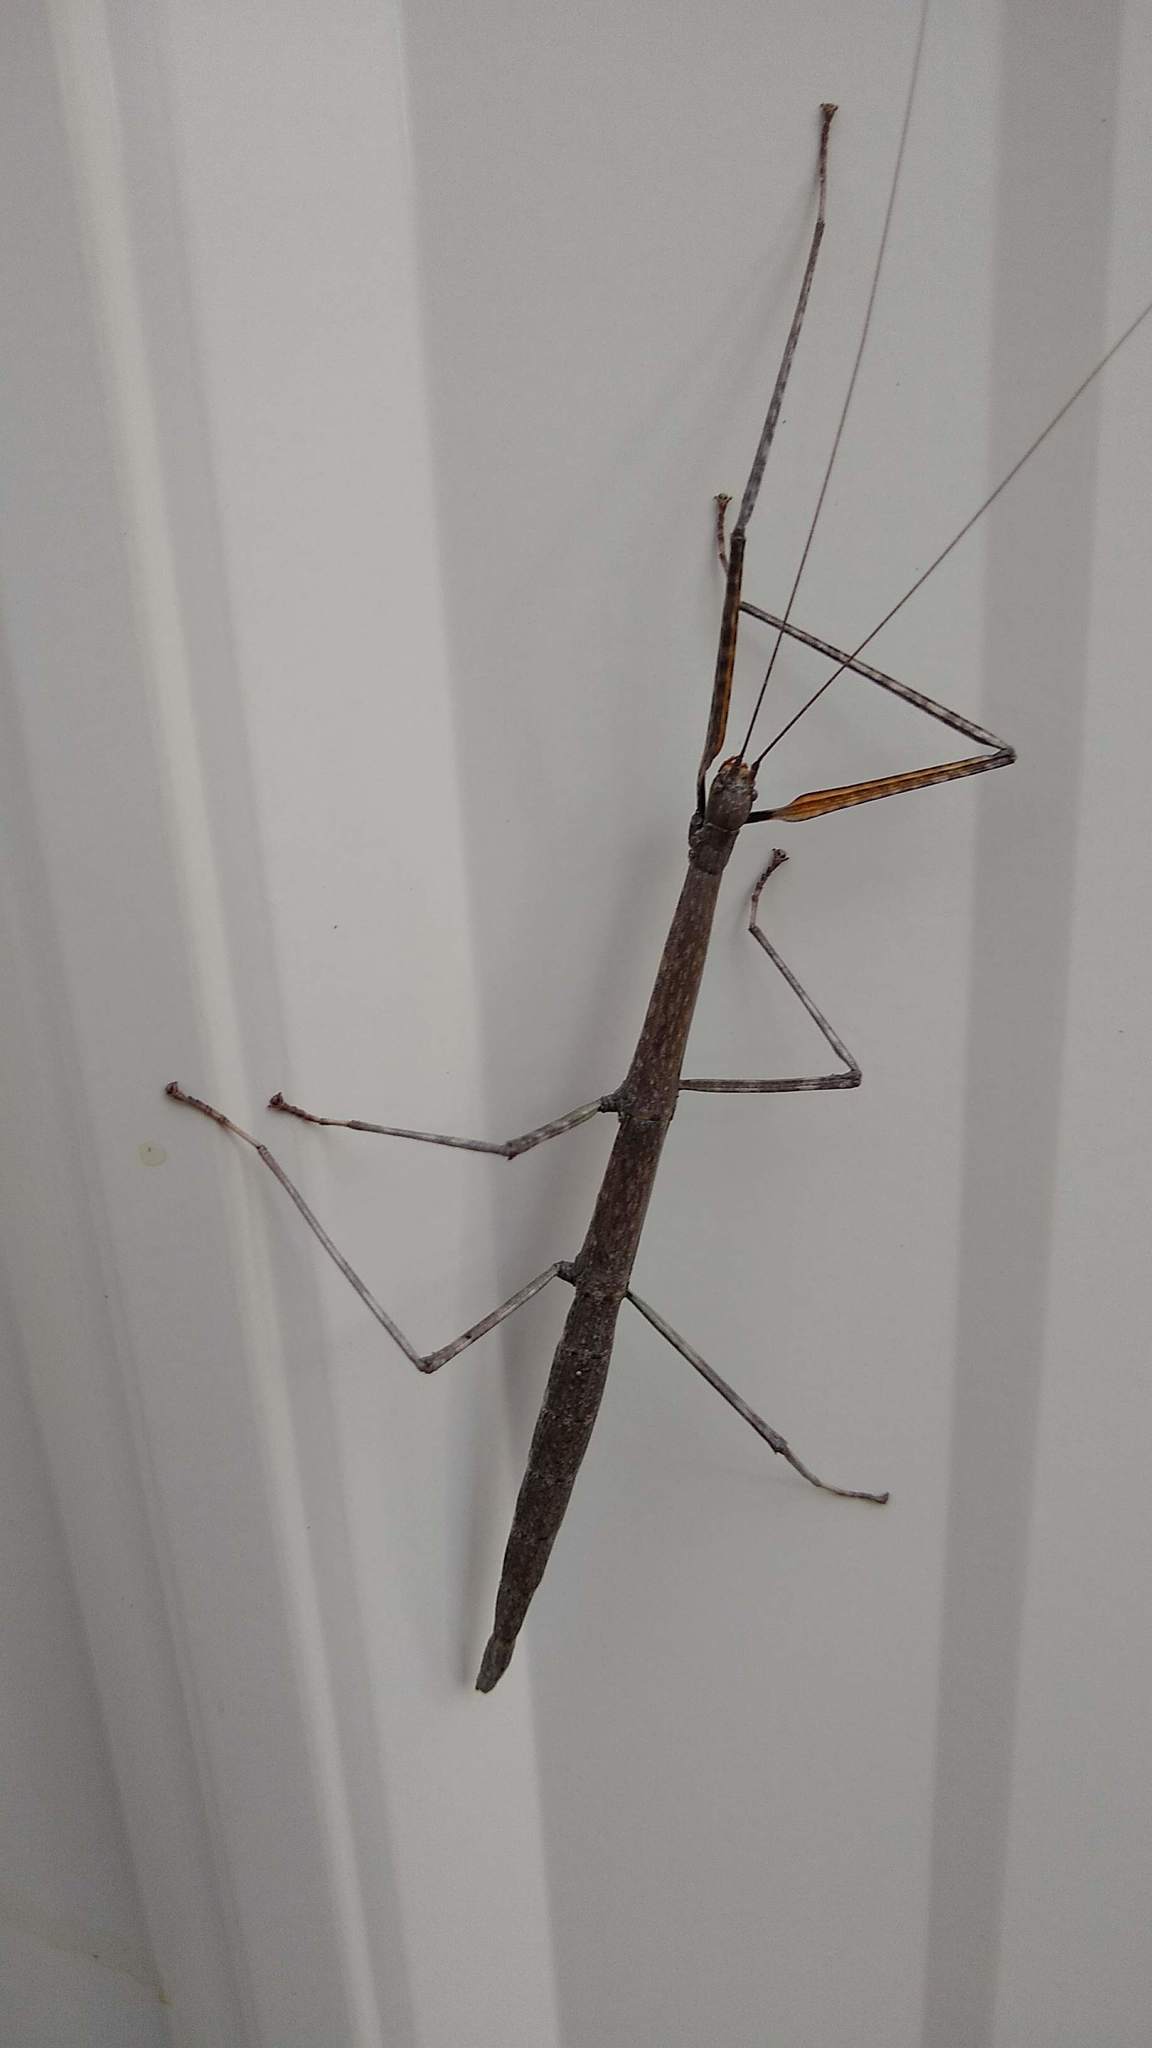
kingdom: Animalia
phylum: Arthropoda
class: Insecta
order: Phasmida
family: Diapheromeridae
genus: Diapheromera
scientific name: Diapheromera femorata
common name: Common american walkingstick
